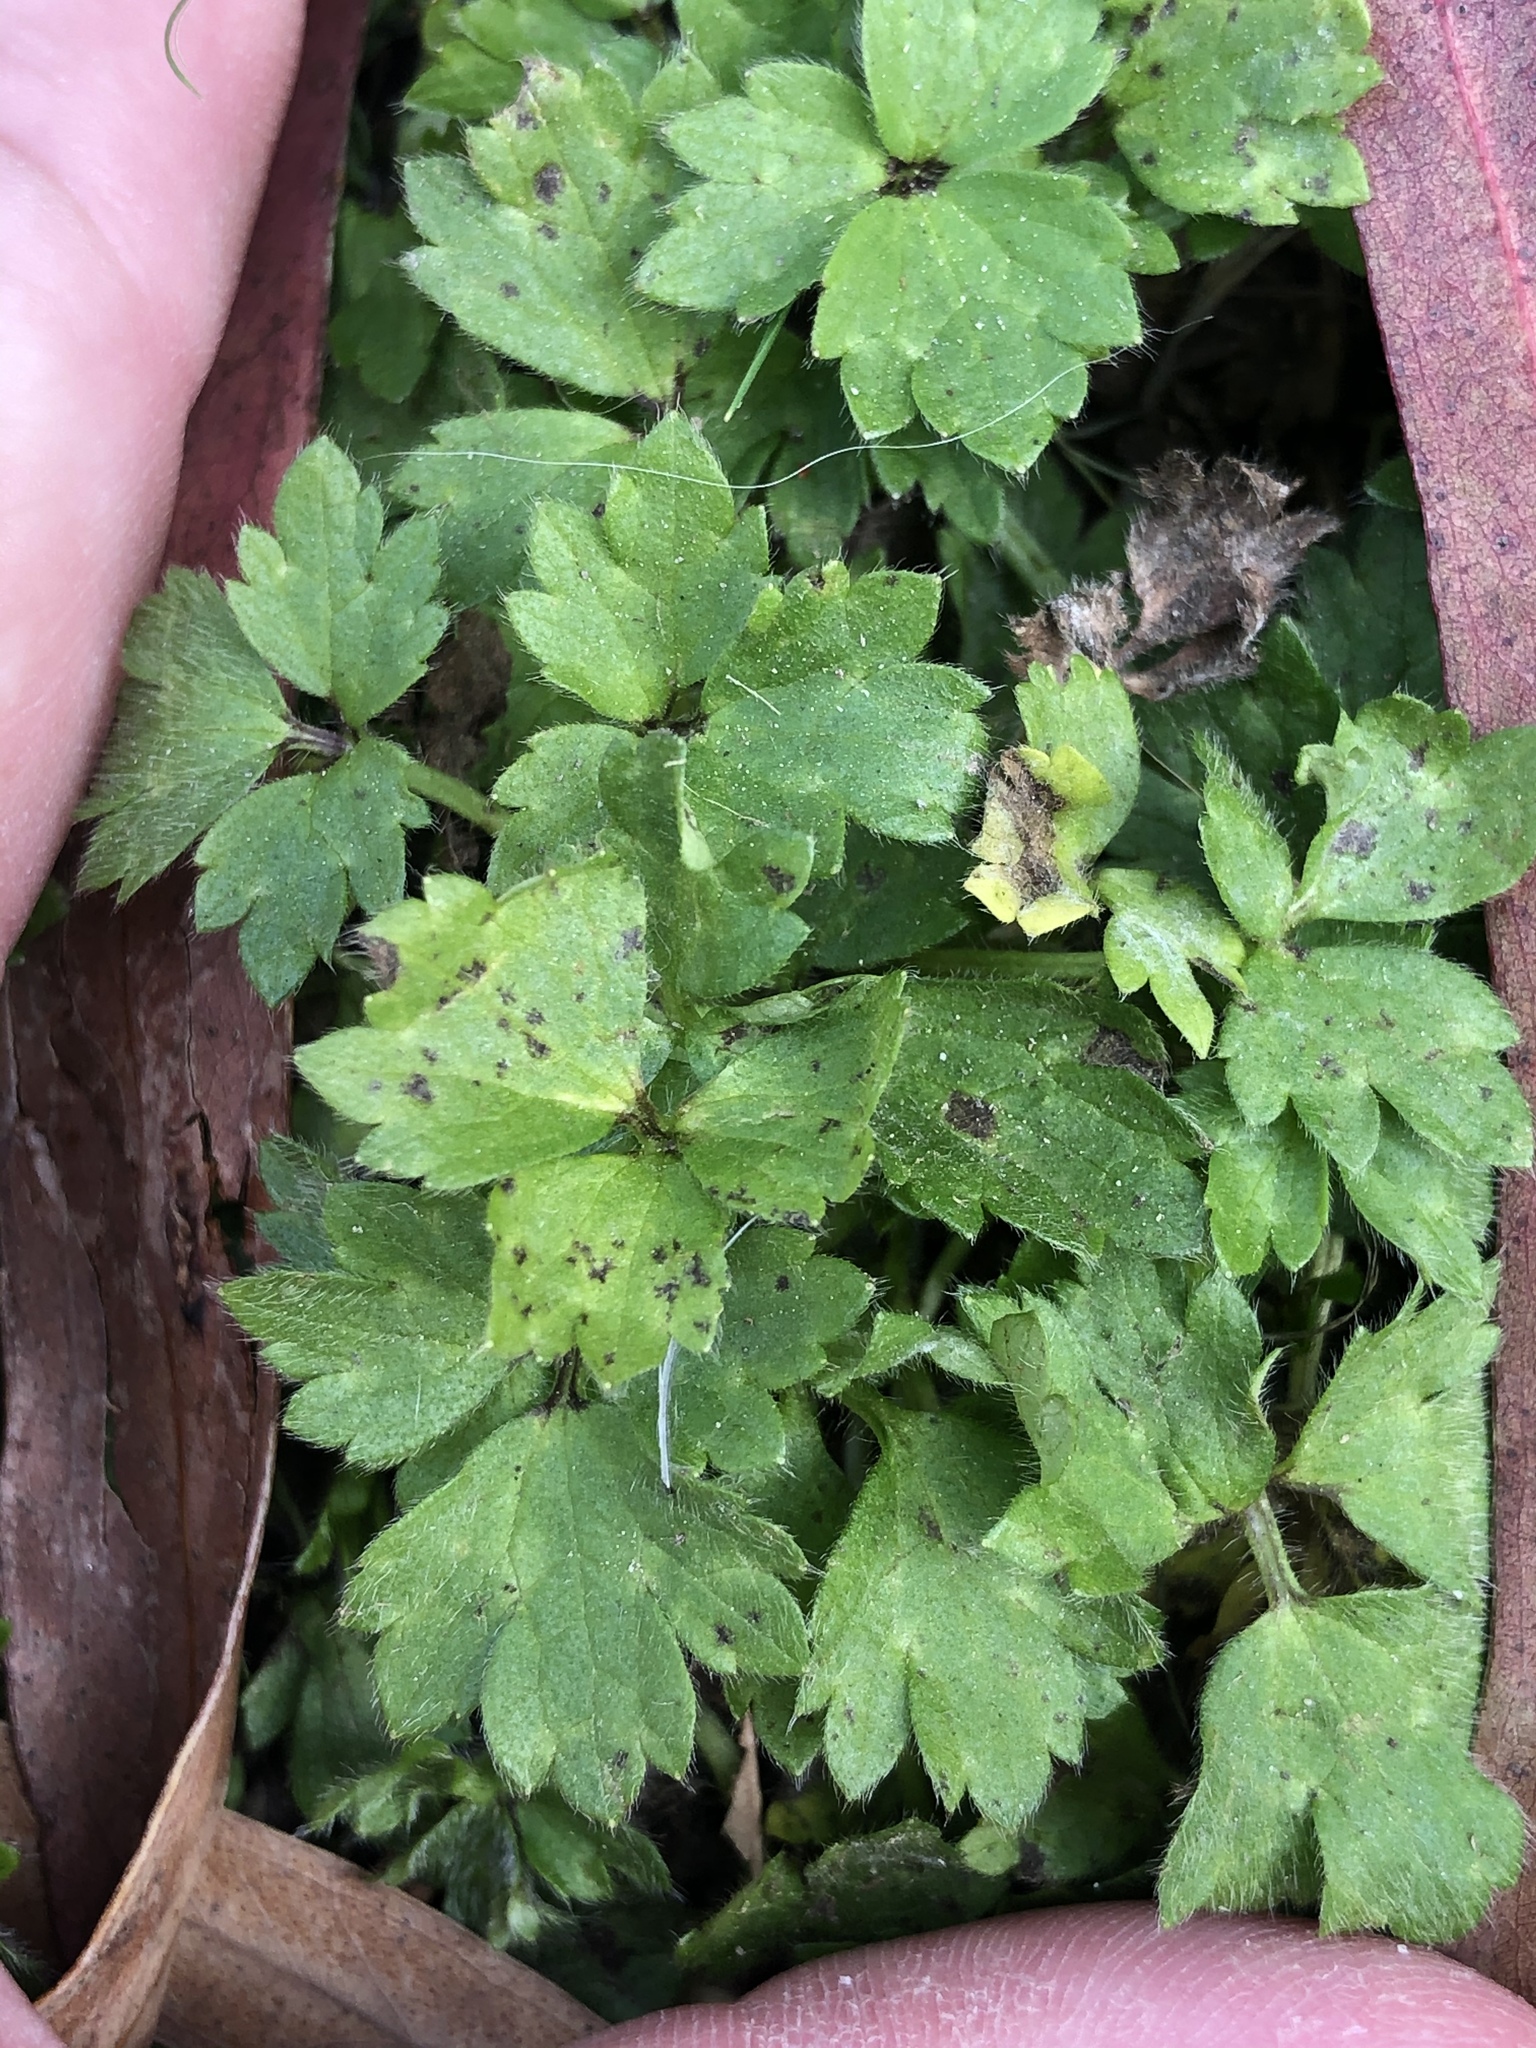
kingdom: Plantae
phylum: Tracheophyta
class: Magnoliopsida
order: Ranunculales
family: Ranunculaceae
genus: Ranunculus
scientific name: Ranunculus repens
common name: Creeping buttercup
